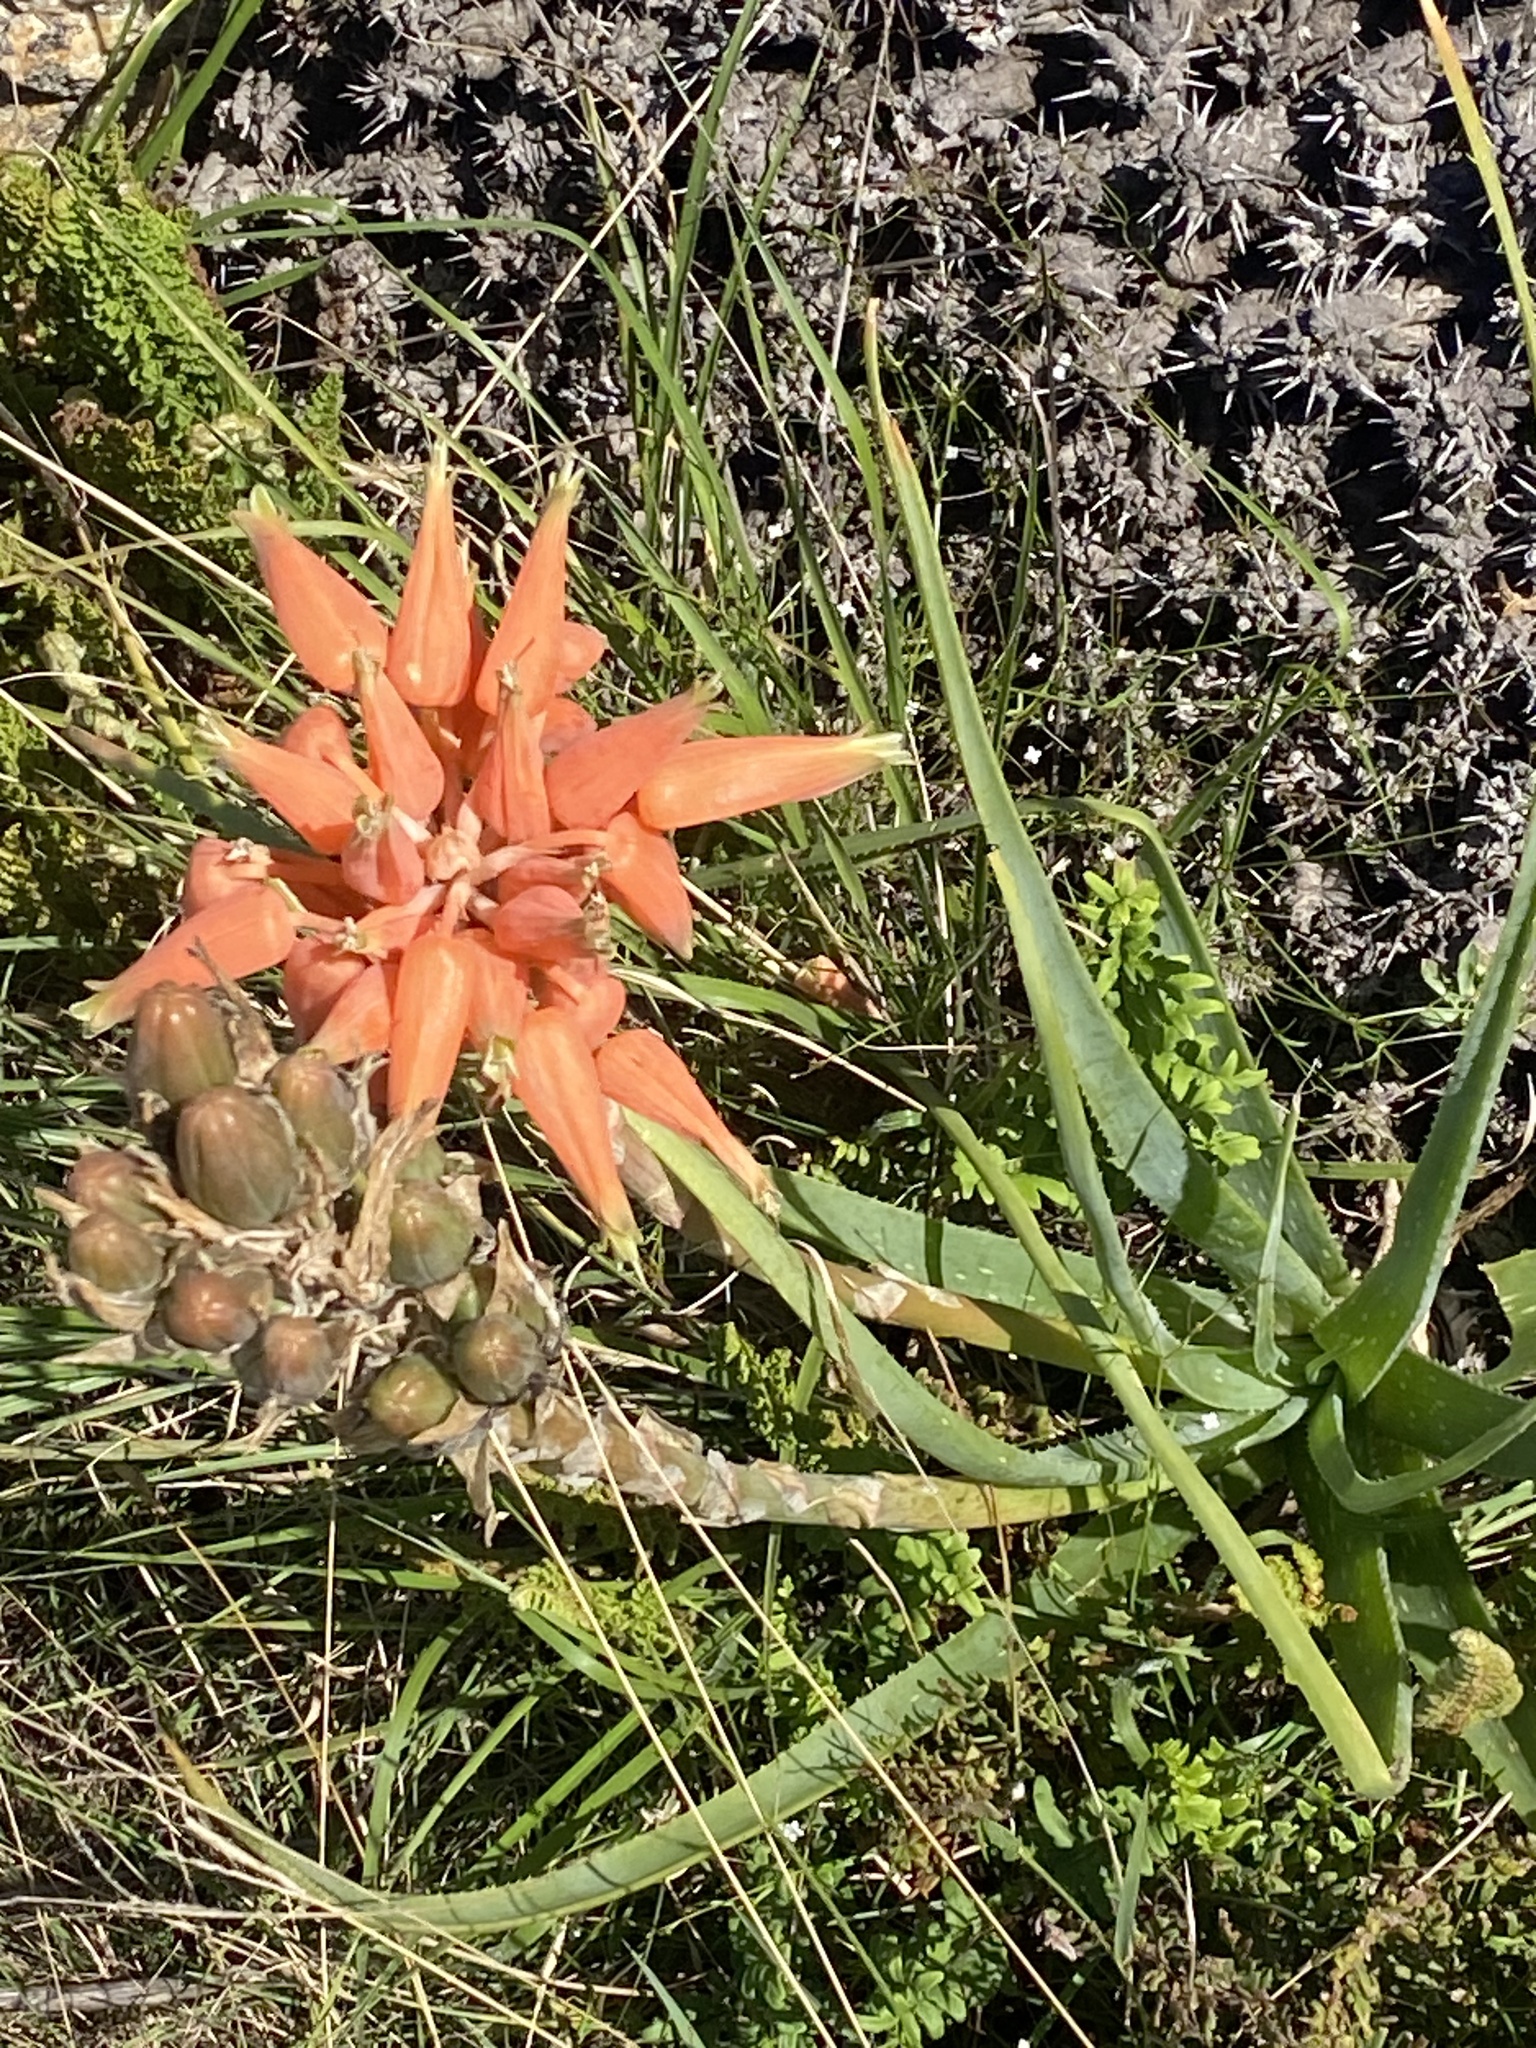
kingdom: Plantae
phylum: Tracheophyta
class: Liliopsida
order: Asparagales
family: Asphodelaceae
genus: Aloe
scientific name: Aloe boylei
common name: Broad-leaved grass aloe
